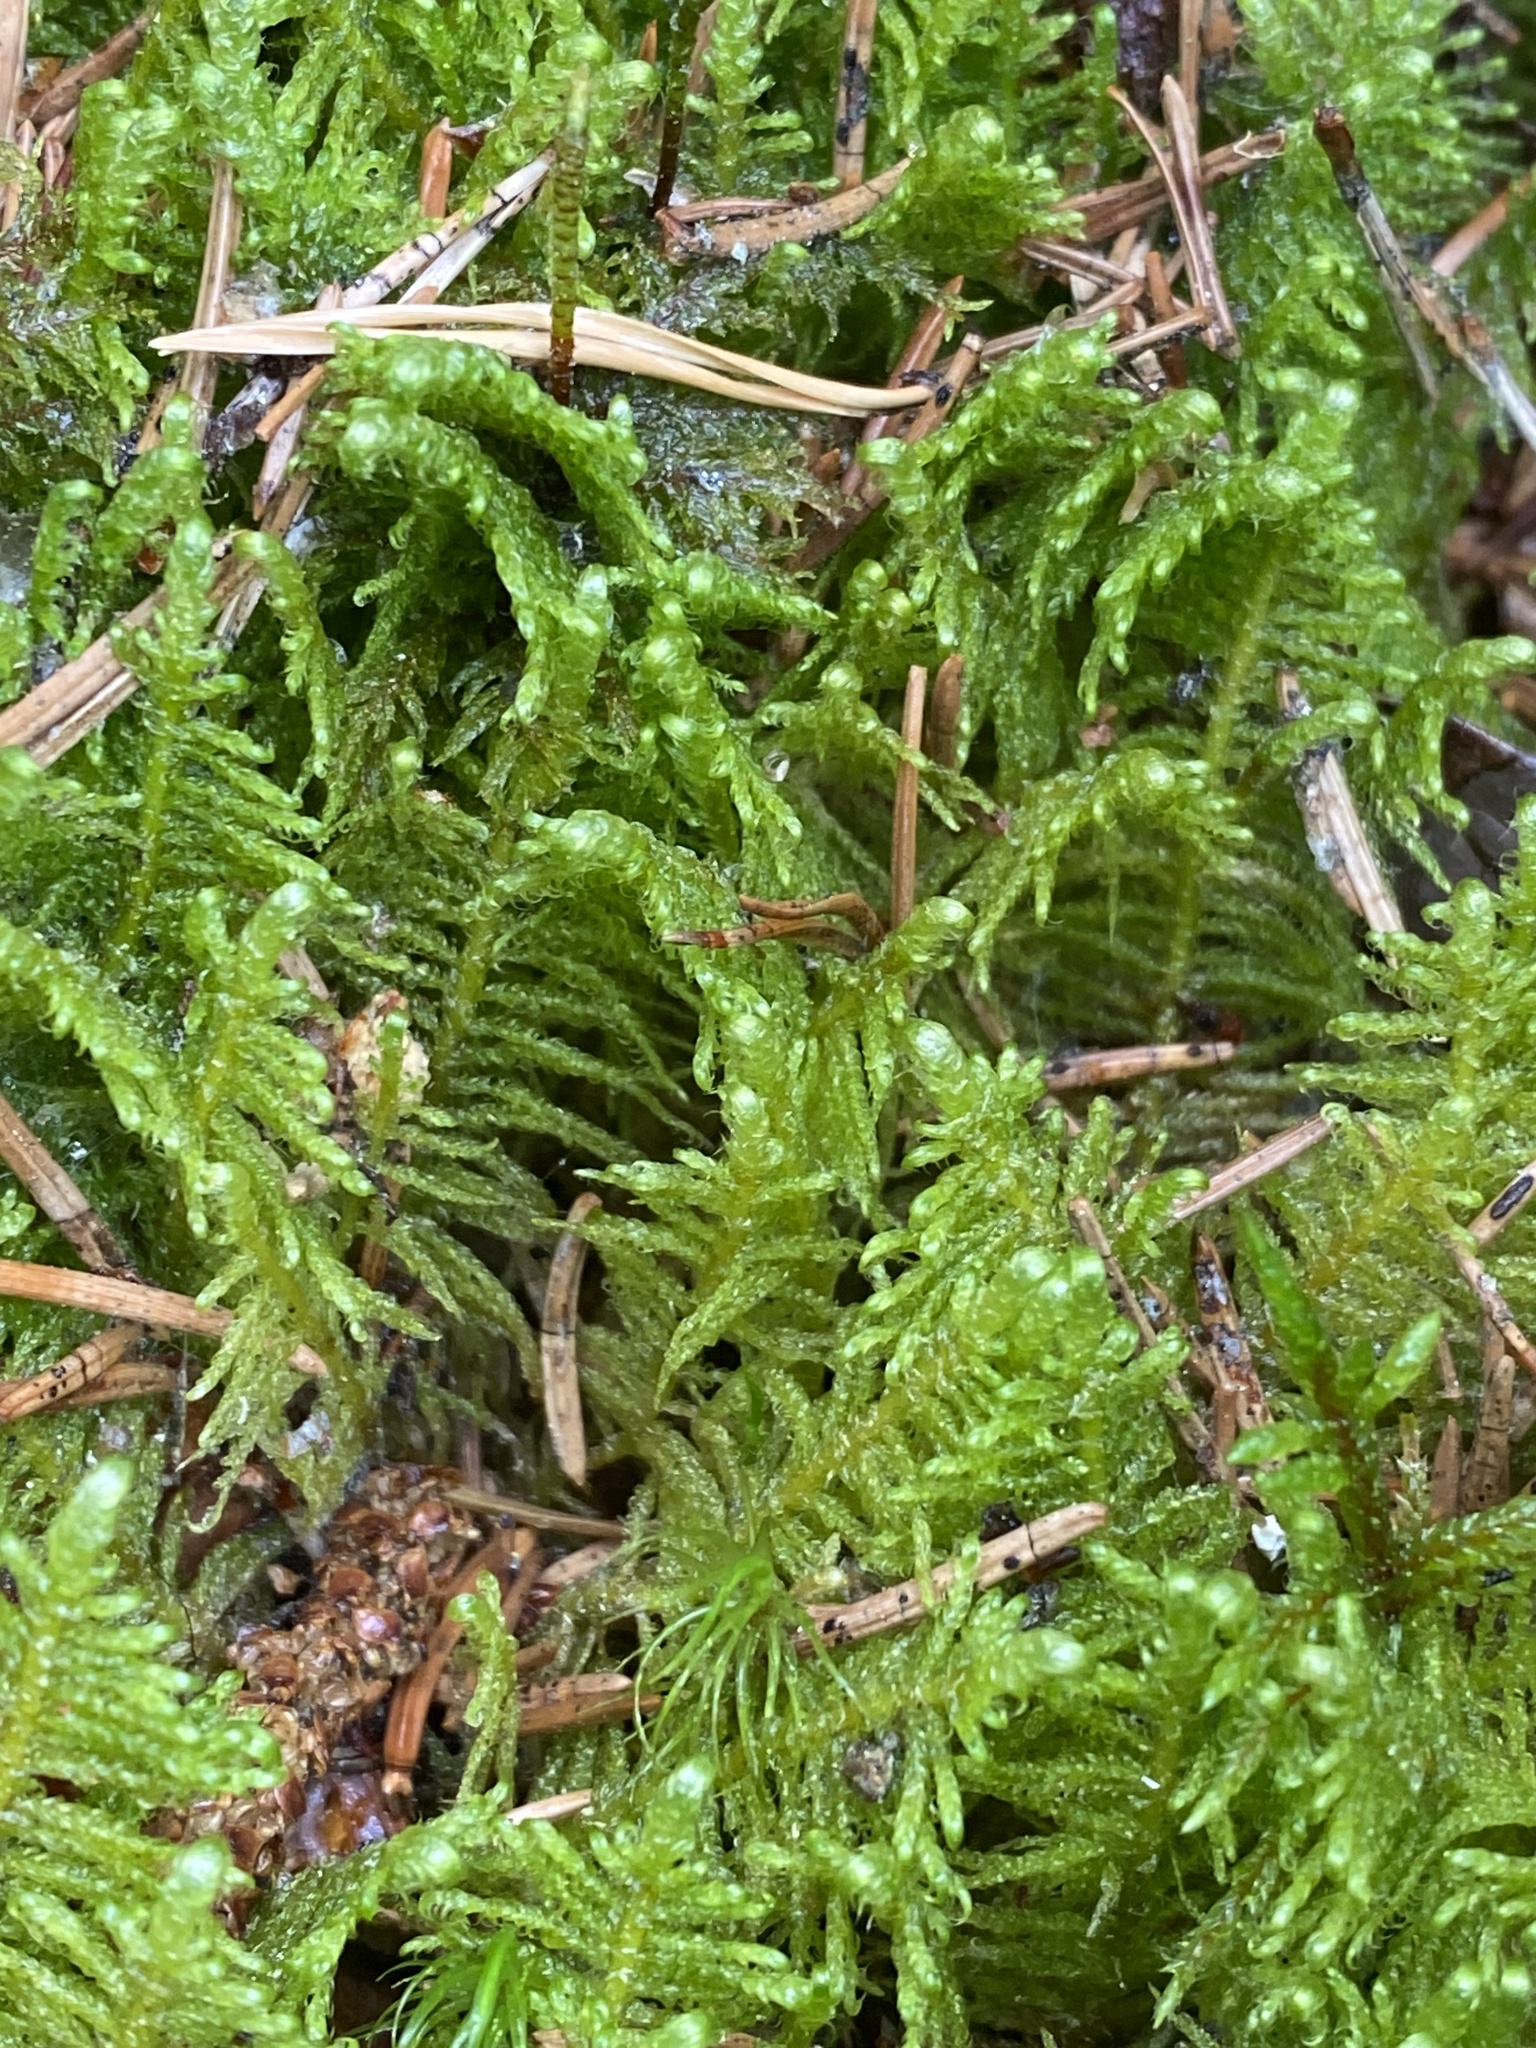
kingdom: Plantae
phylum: Bryophyta
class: Bryopsida
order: Hypnales
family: Pylaisiaceae
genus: Ptilium
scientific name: Ptilium crista-castrensis
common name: Knight's plume moss
